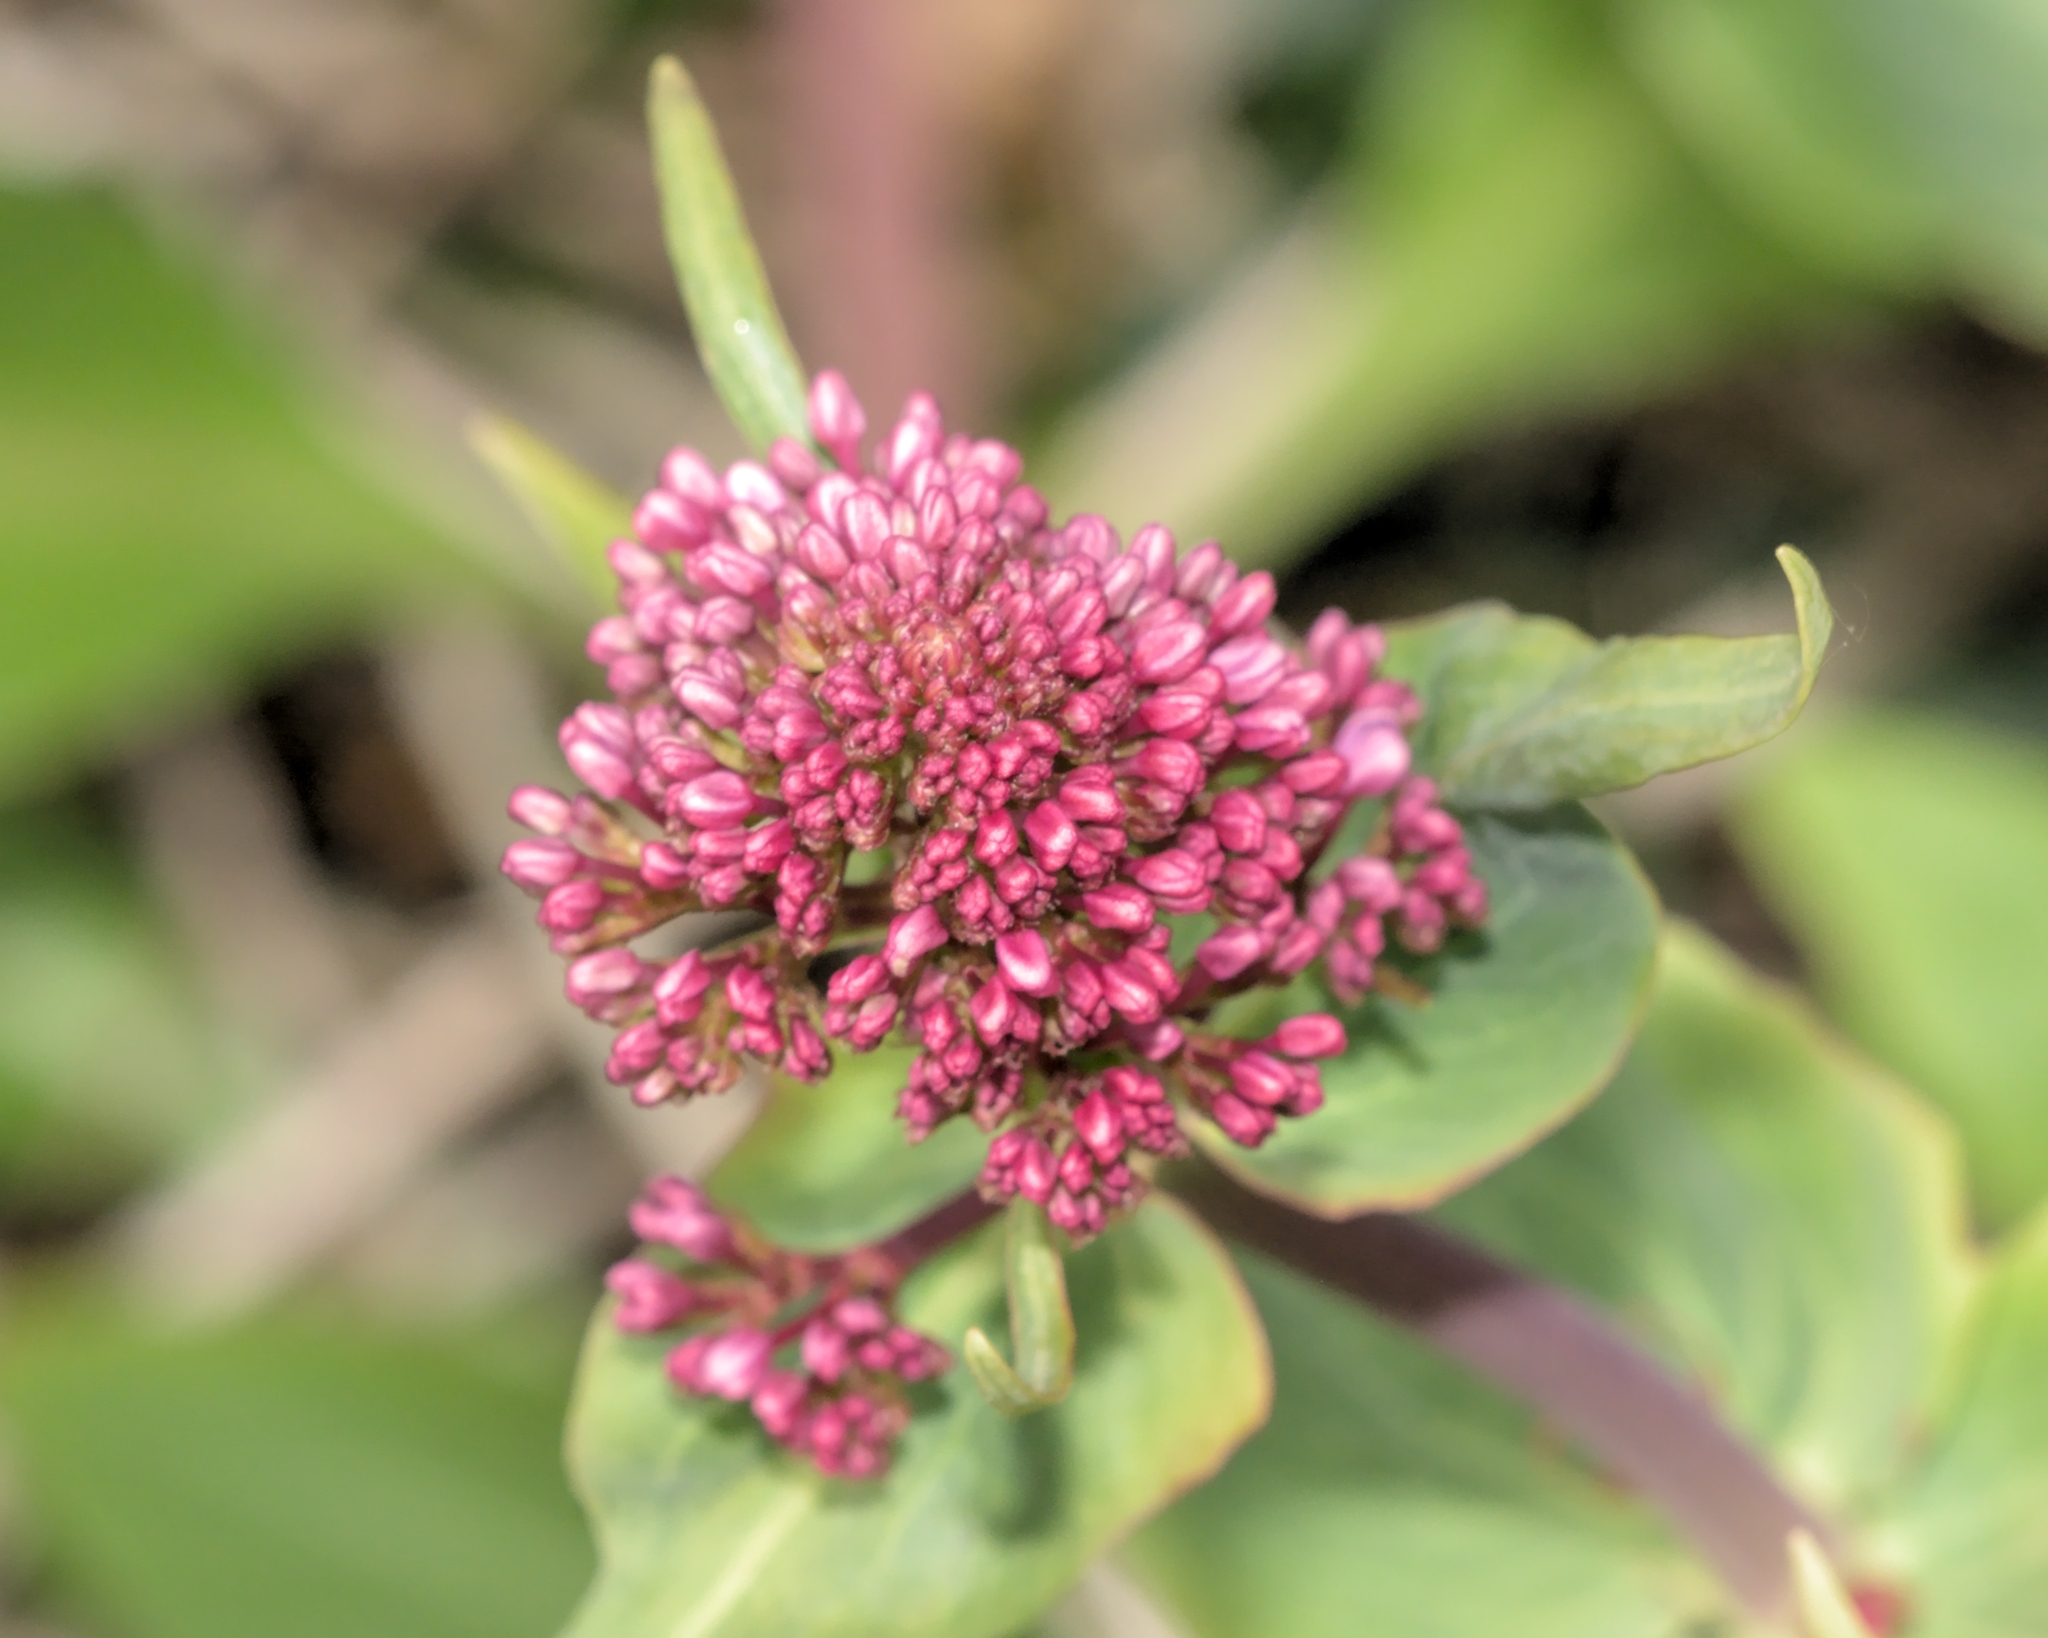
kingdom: Plantae
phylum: Tracheophyta
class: Magnoliopsida
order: Dipsacales
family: Caprifoliaceae
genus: Centranthus
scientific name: Centranthus ruber
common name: Red valerian
